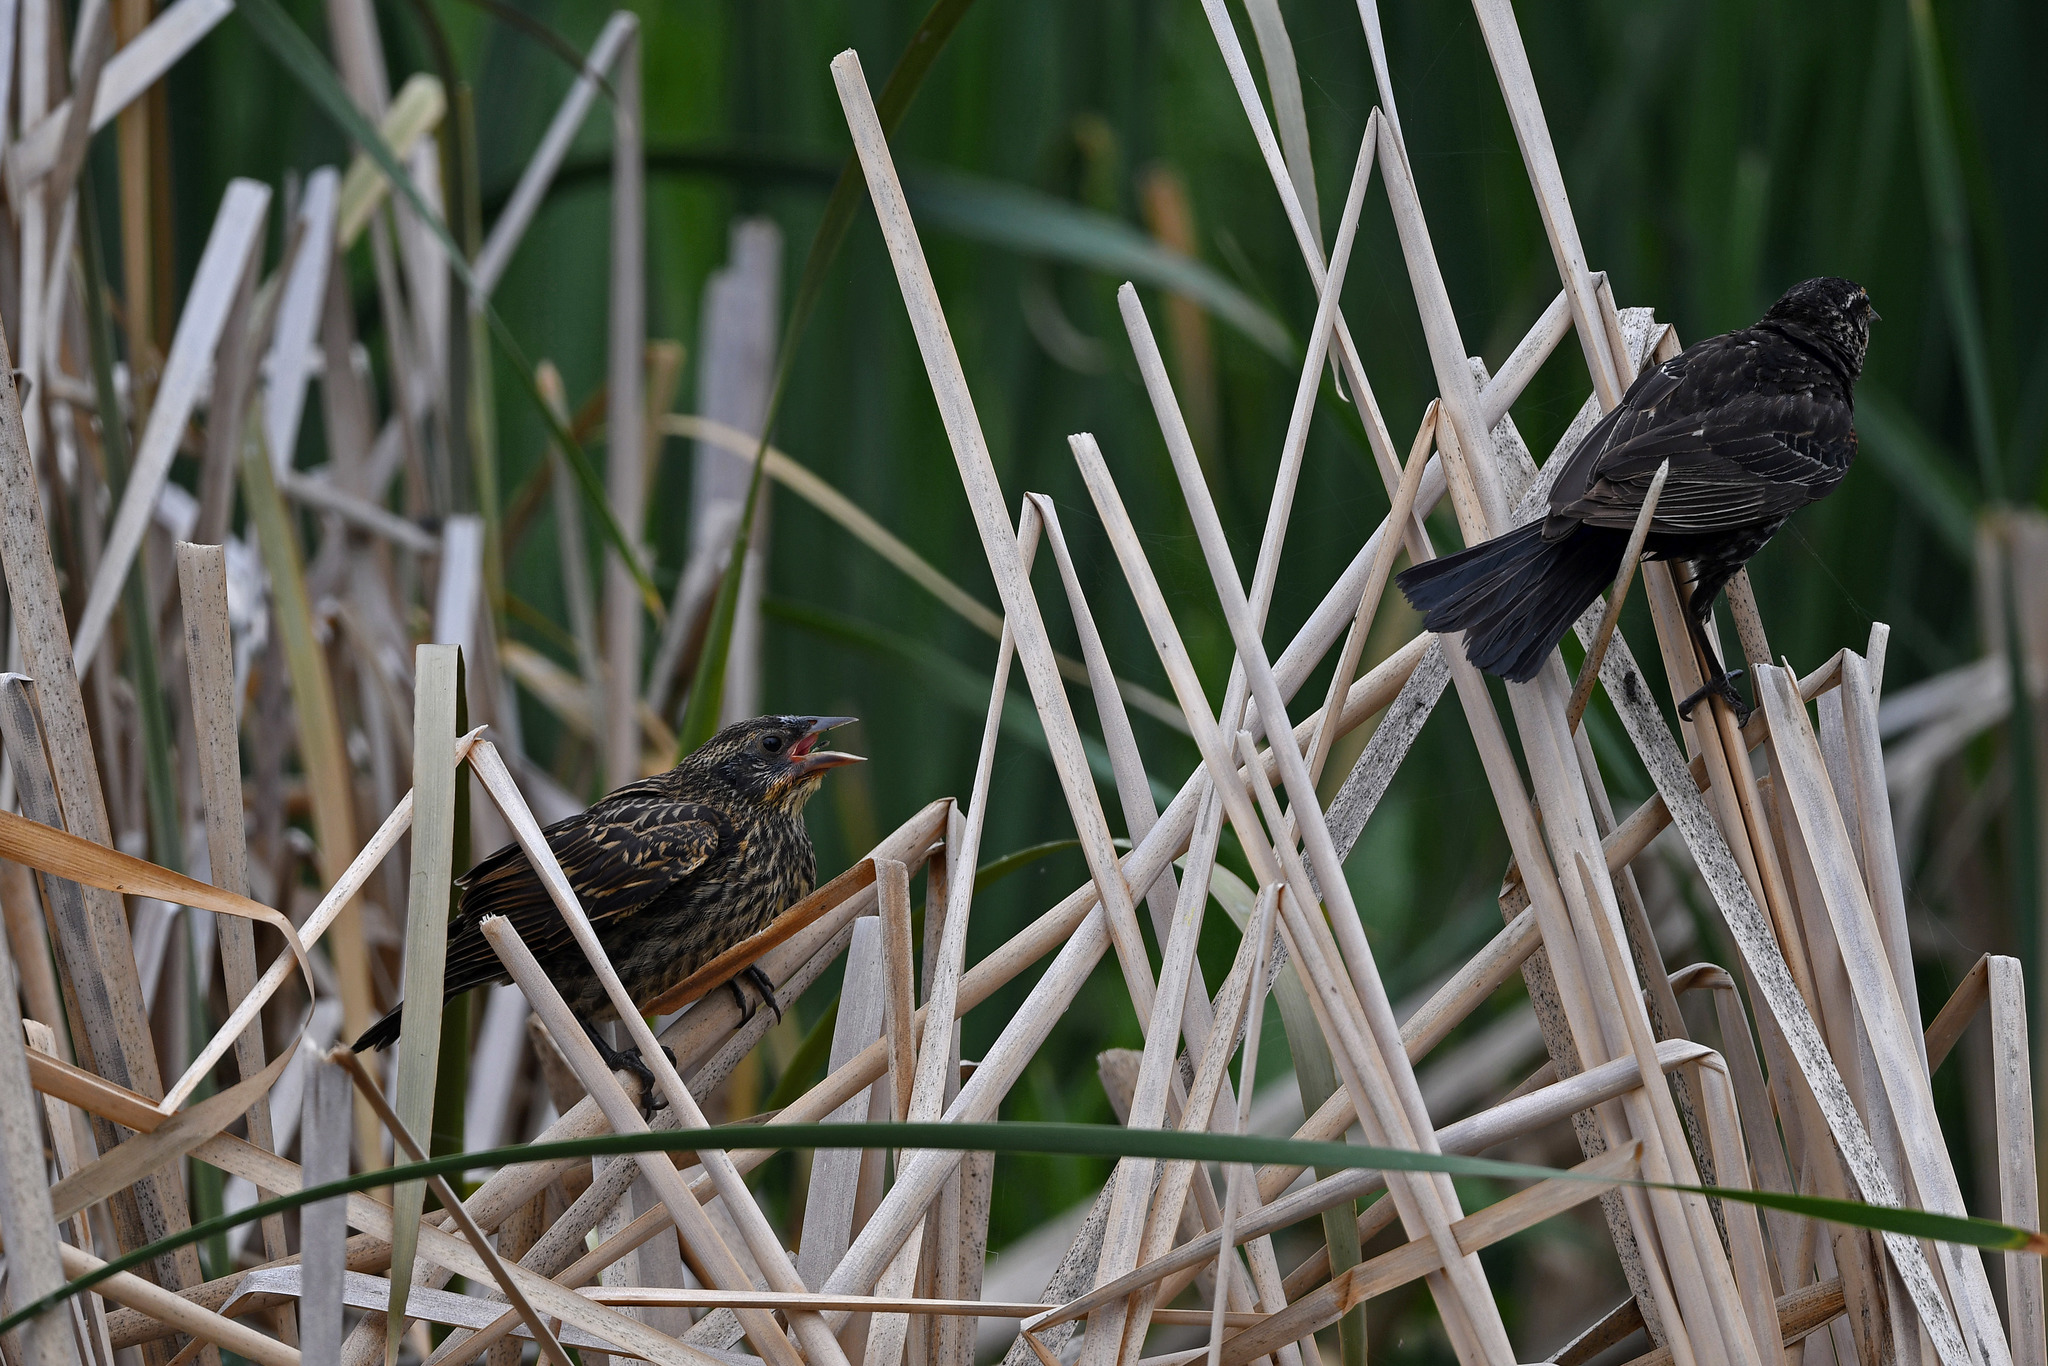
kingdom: Animalia
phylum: Chordata
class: Aves
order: Passeriformes
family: Icteridae
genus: Agelaius
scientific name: Agelaius phoeniceus
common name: Red-winged blackbird
